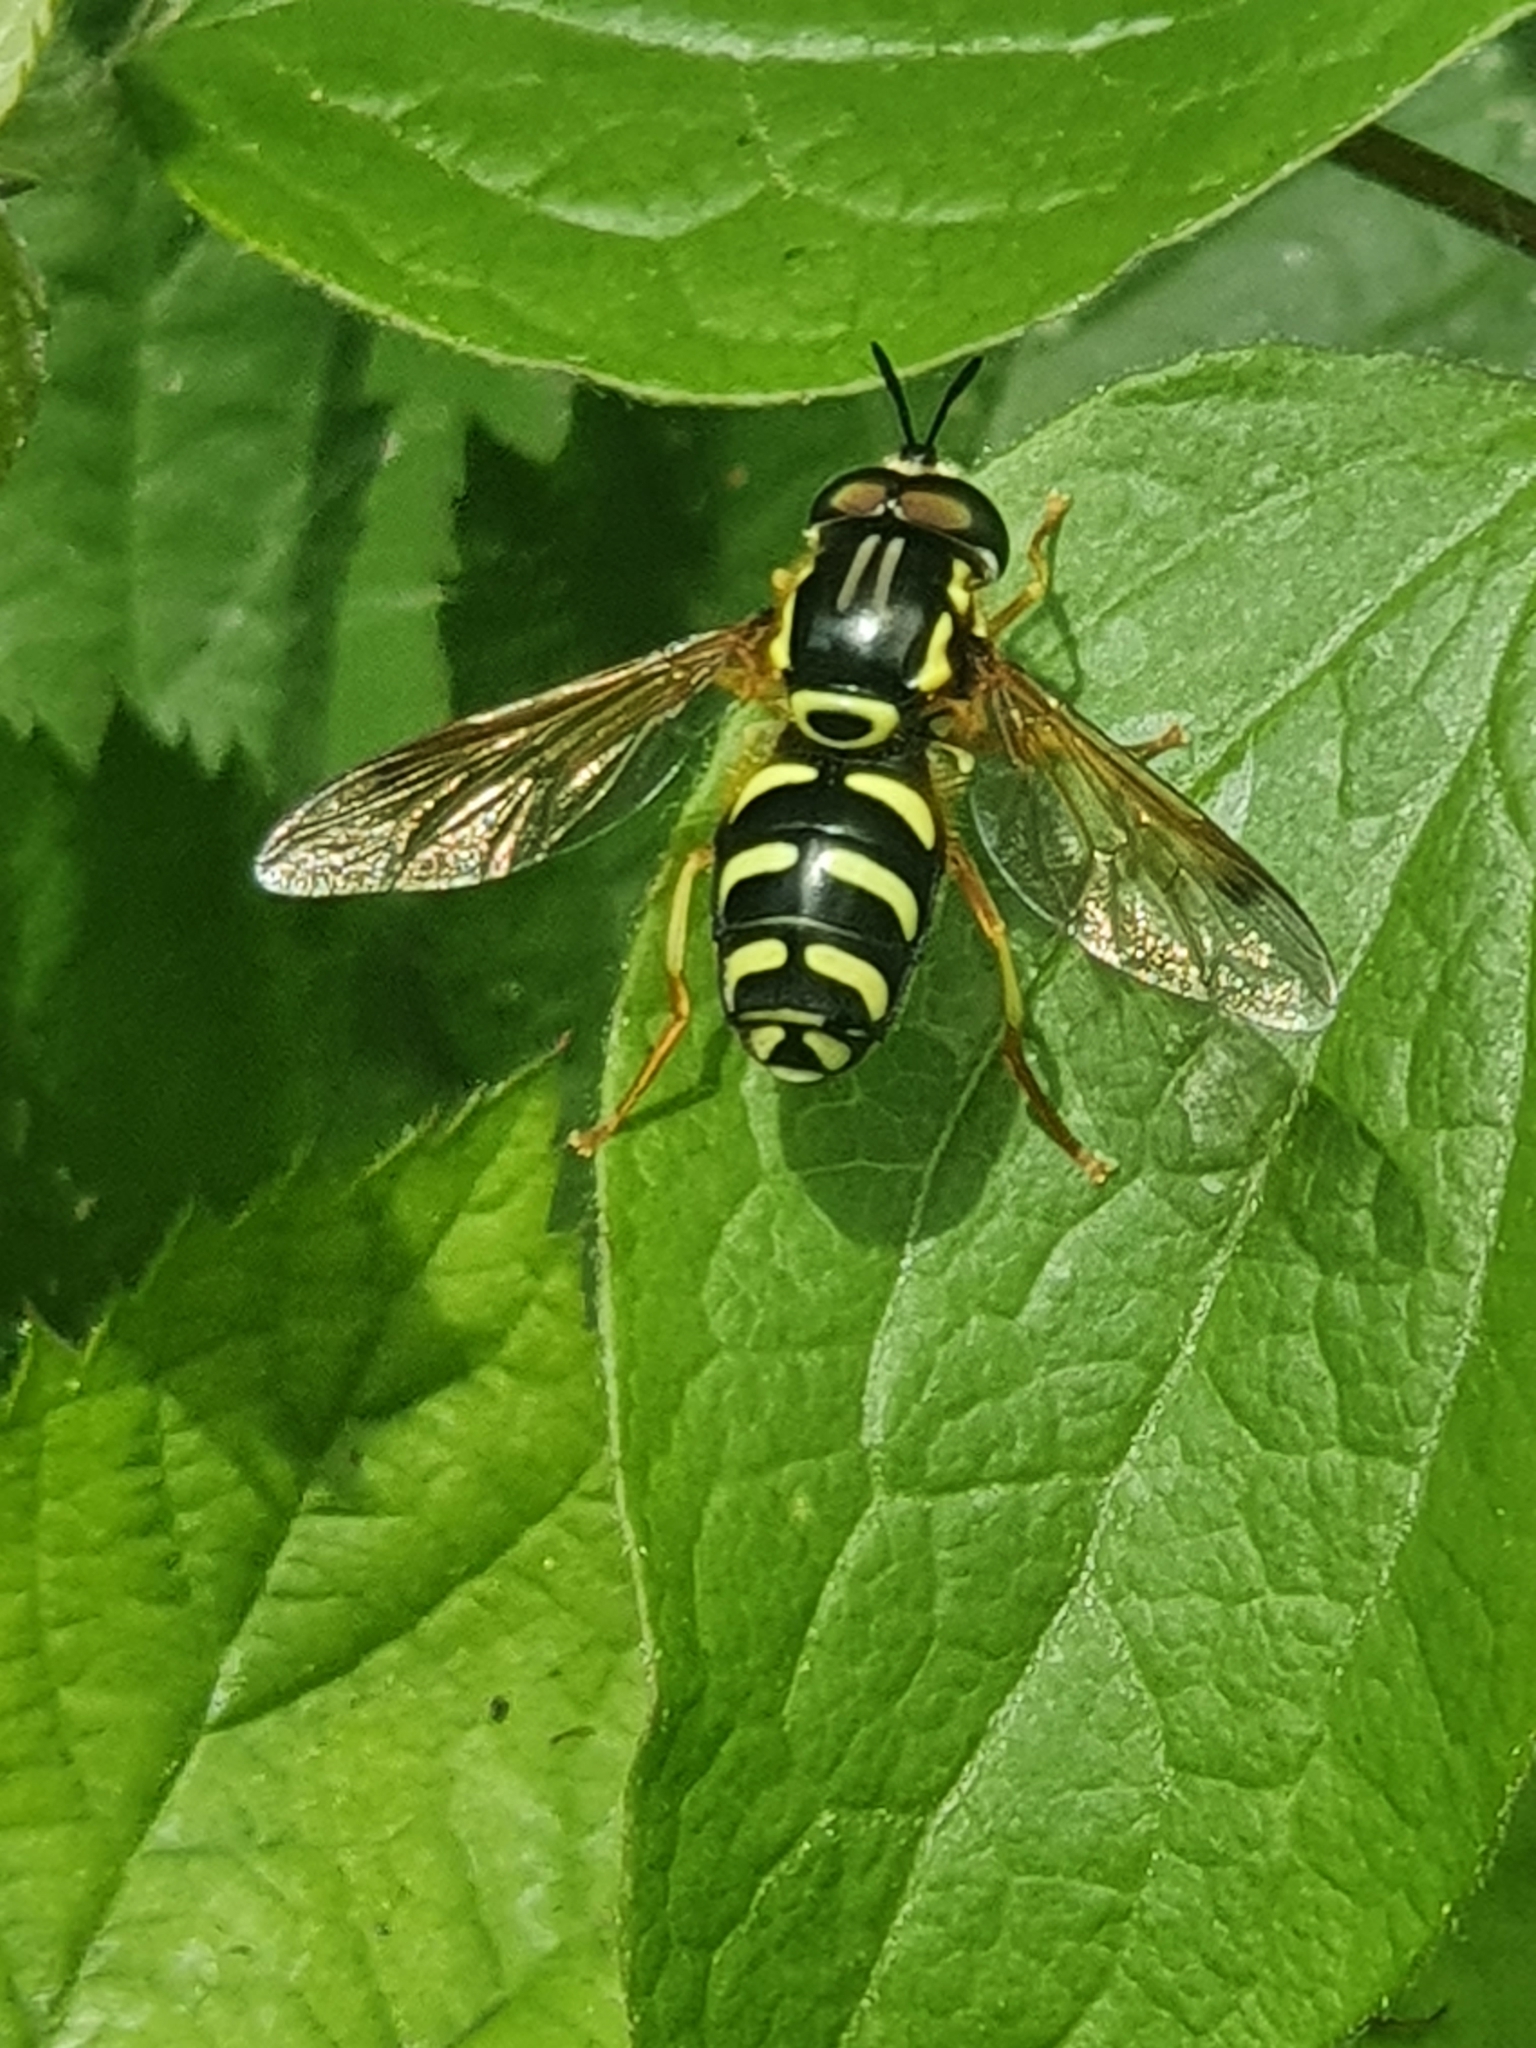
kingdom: Animalia
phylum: Arthropoda
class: Insecta
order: Diptera
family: Syrphidae
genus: Chrysotoxum
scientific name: Chrysotoxum festivum
